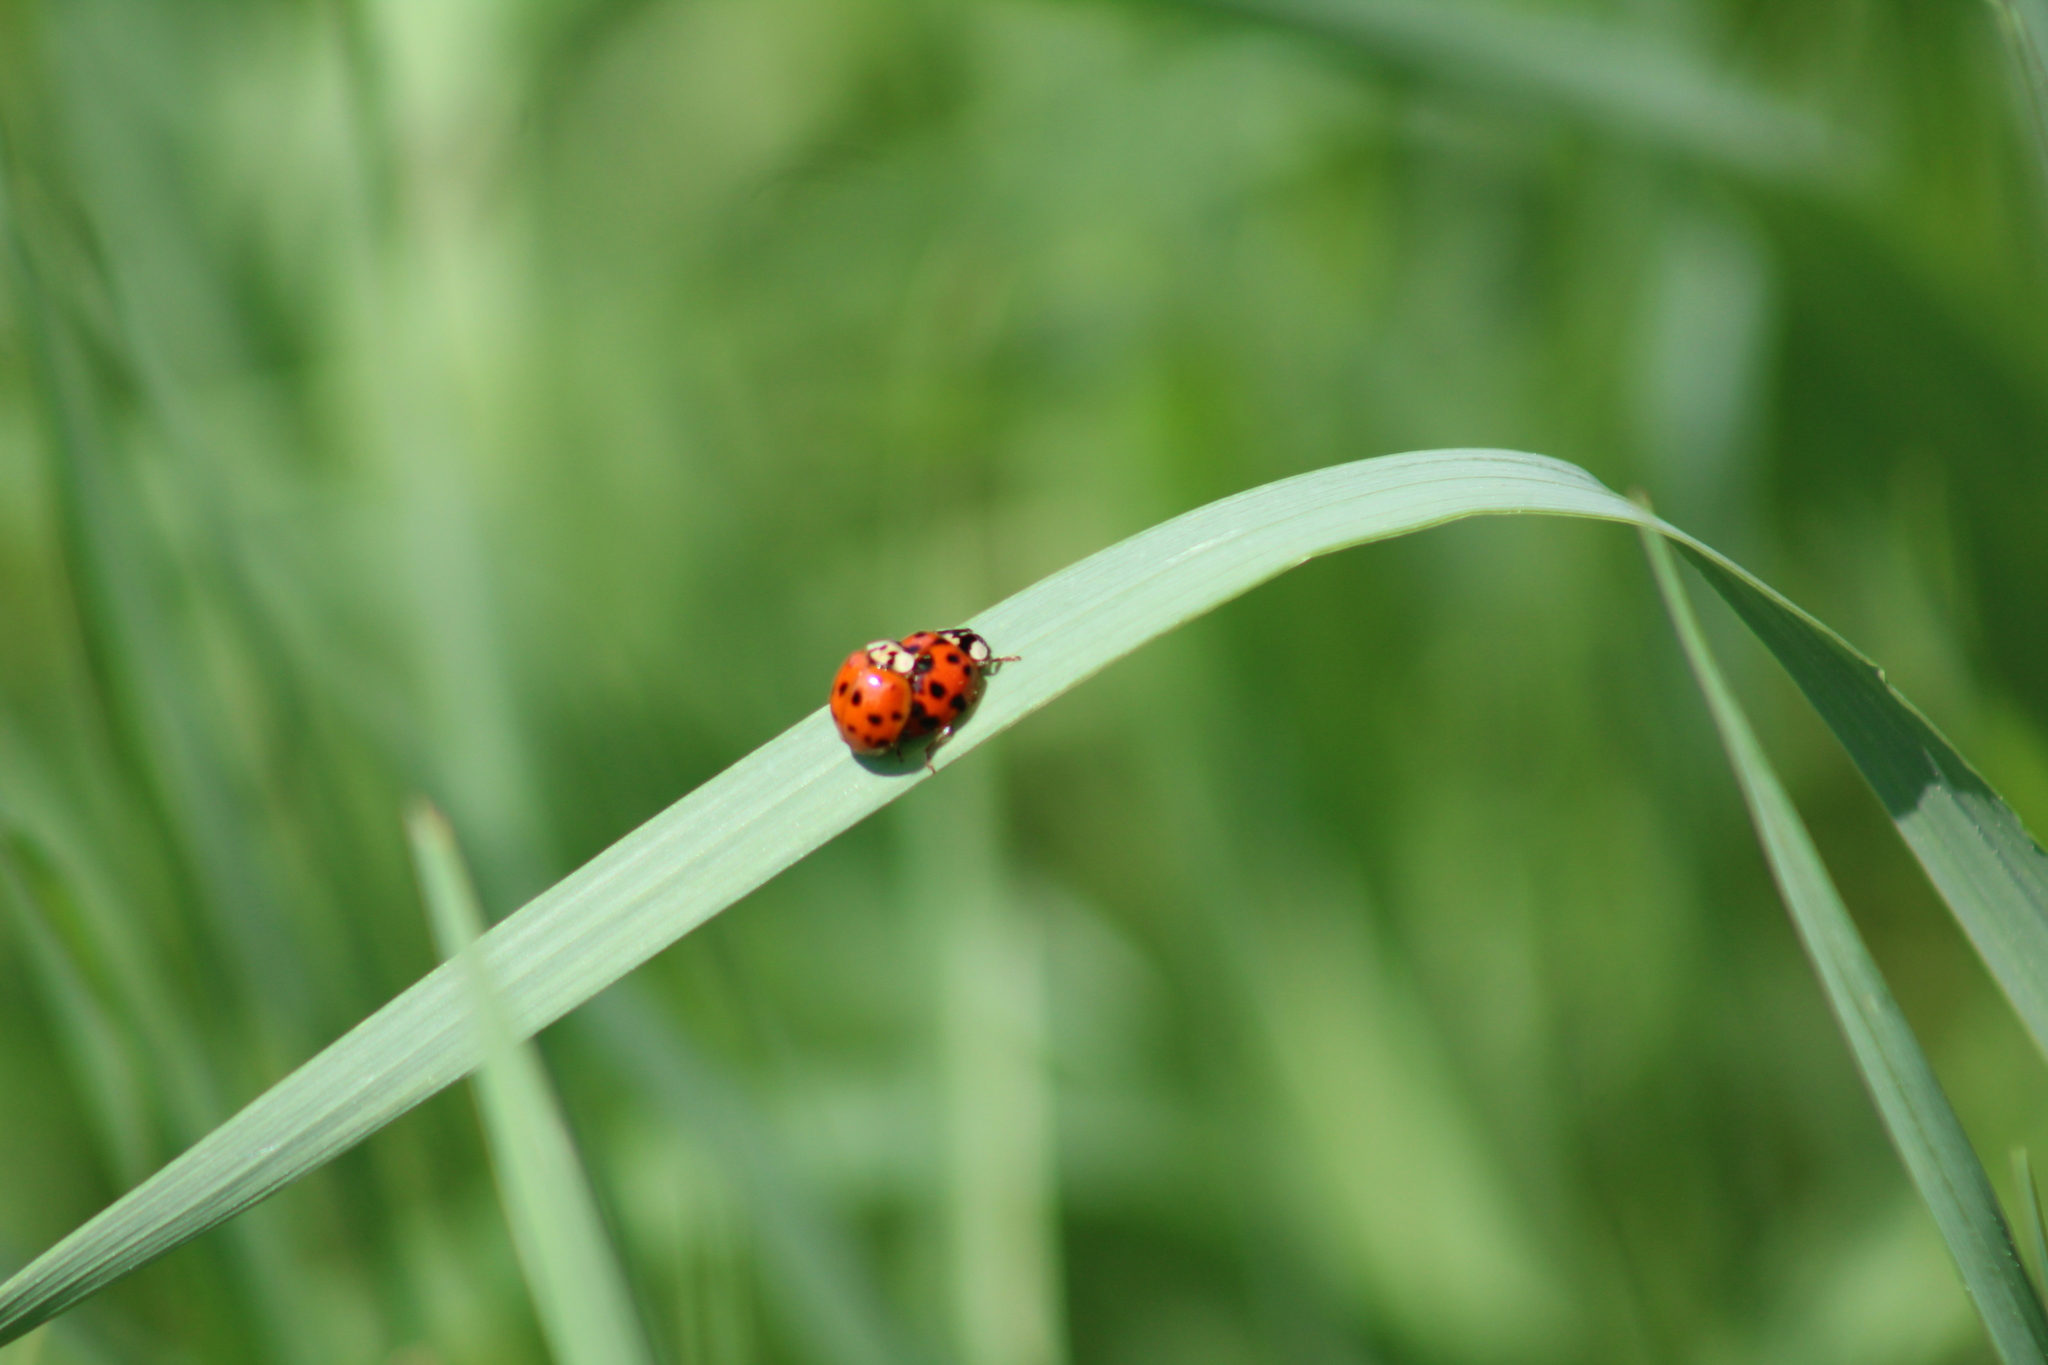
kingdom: Animalia
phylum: Arthropoda
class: Insecta
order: Coleoptera
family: Coccinellidae
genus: Harmonia
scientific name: Harmonia axyridis
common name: Harlequin ladybird
